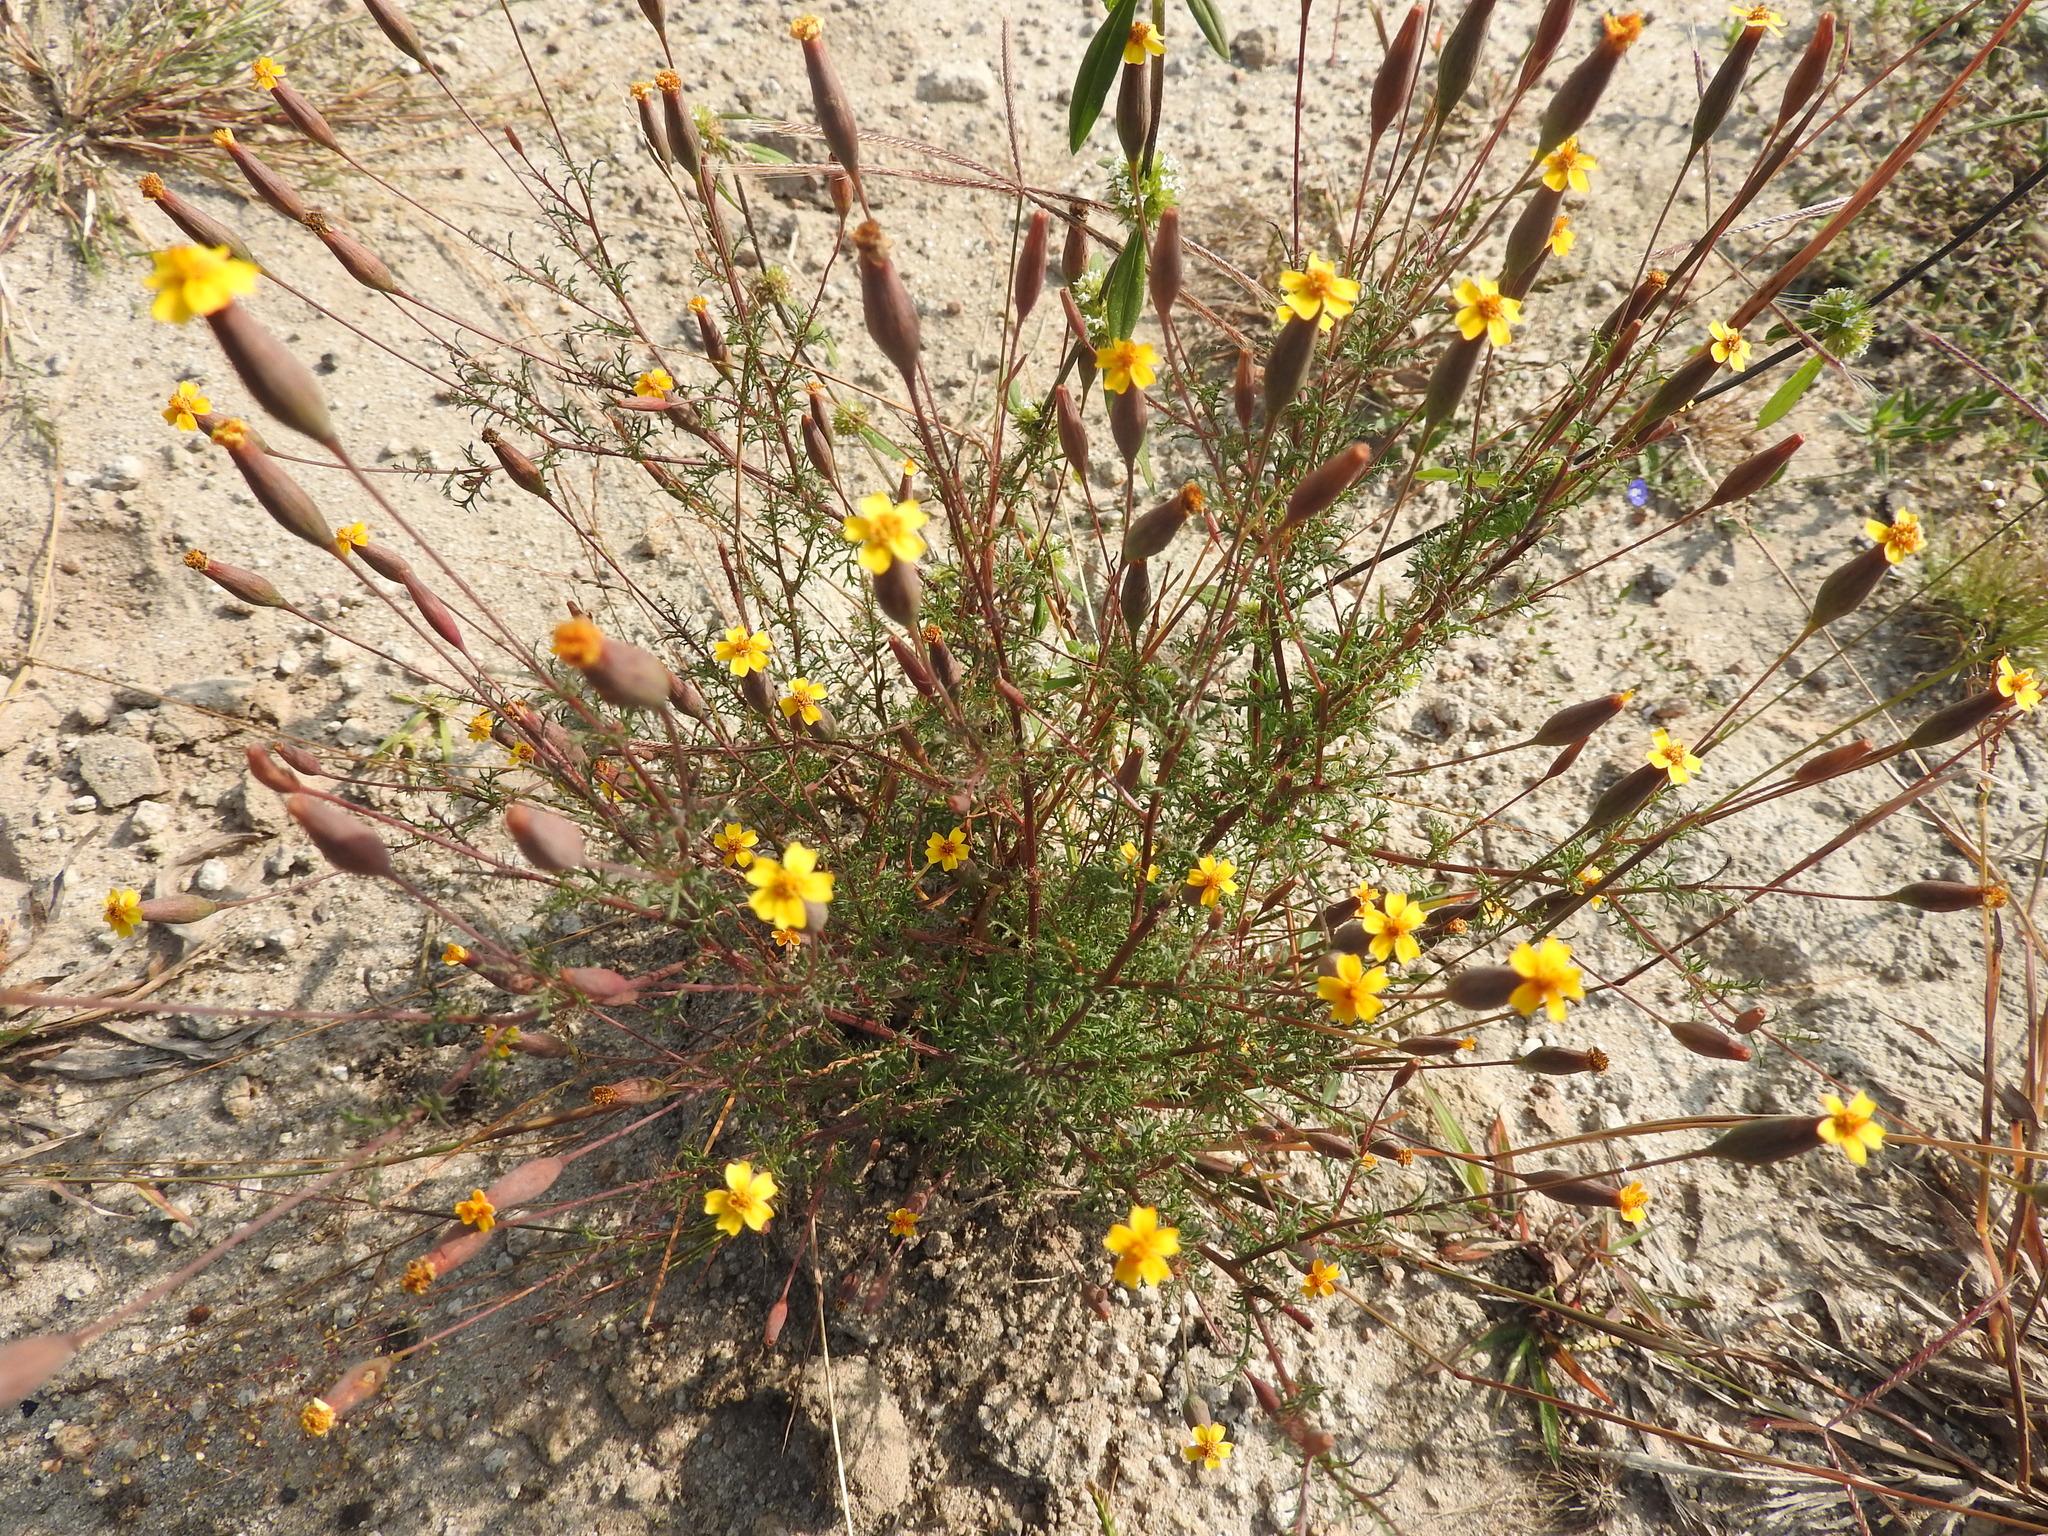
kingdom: Plantae
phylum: Tracheophyta
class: Magnoliopsida
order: Asterales
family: Asteraceae
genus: Tagetes
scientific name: Tagetes subulata
